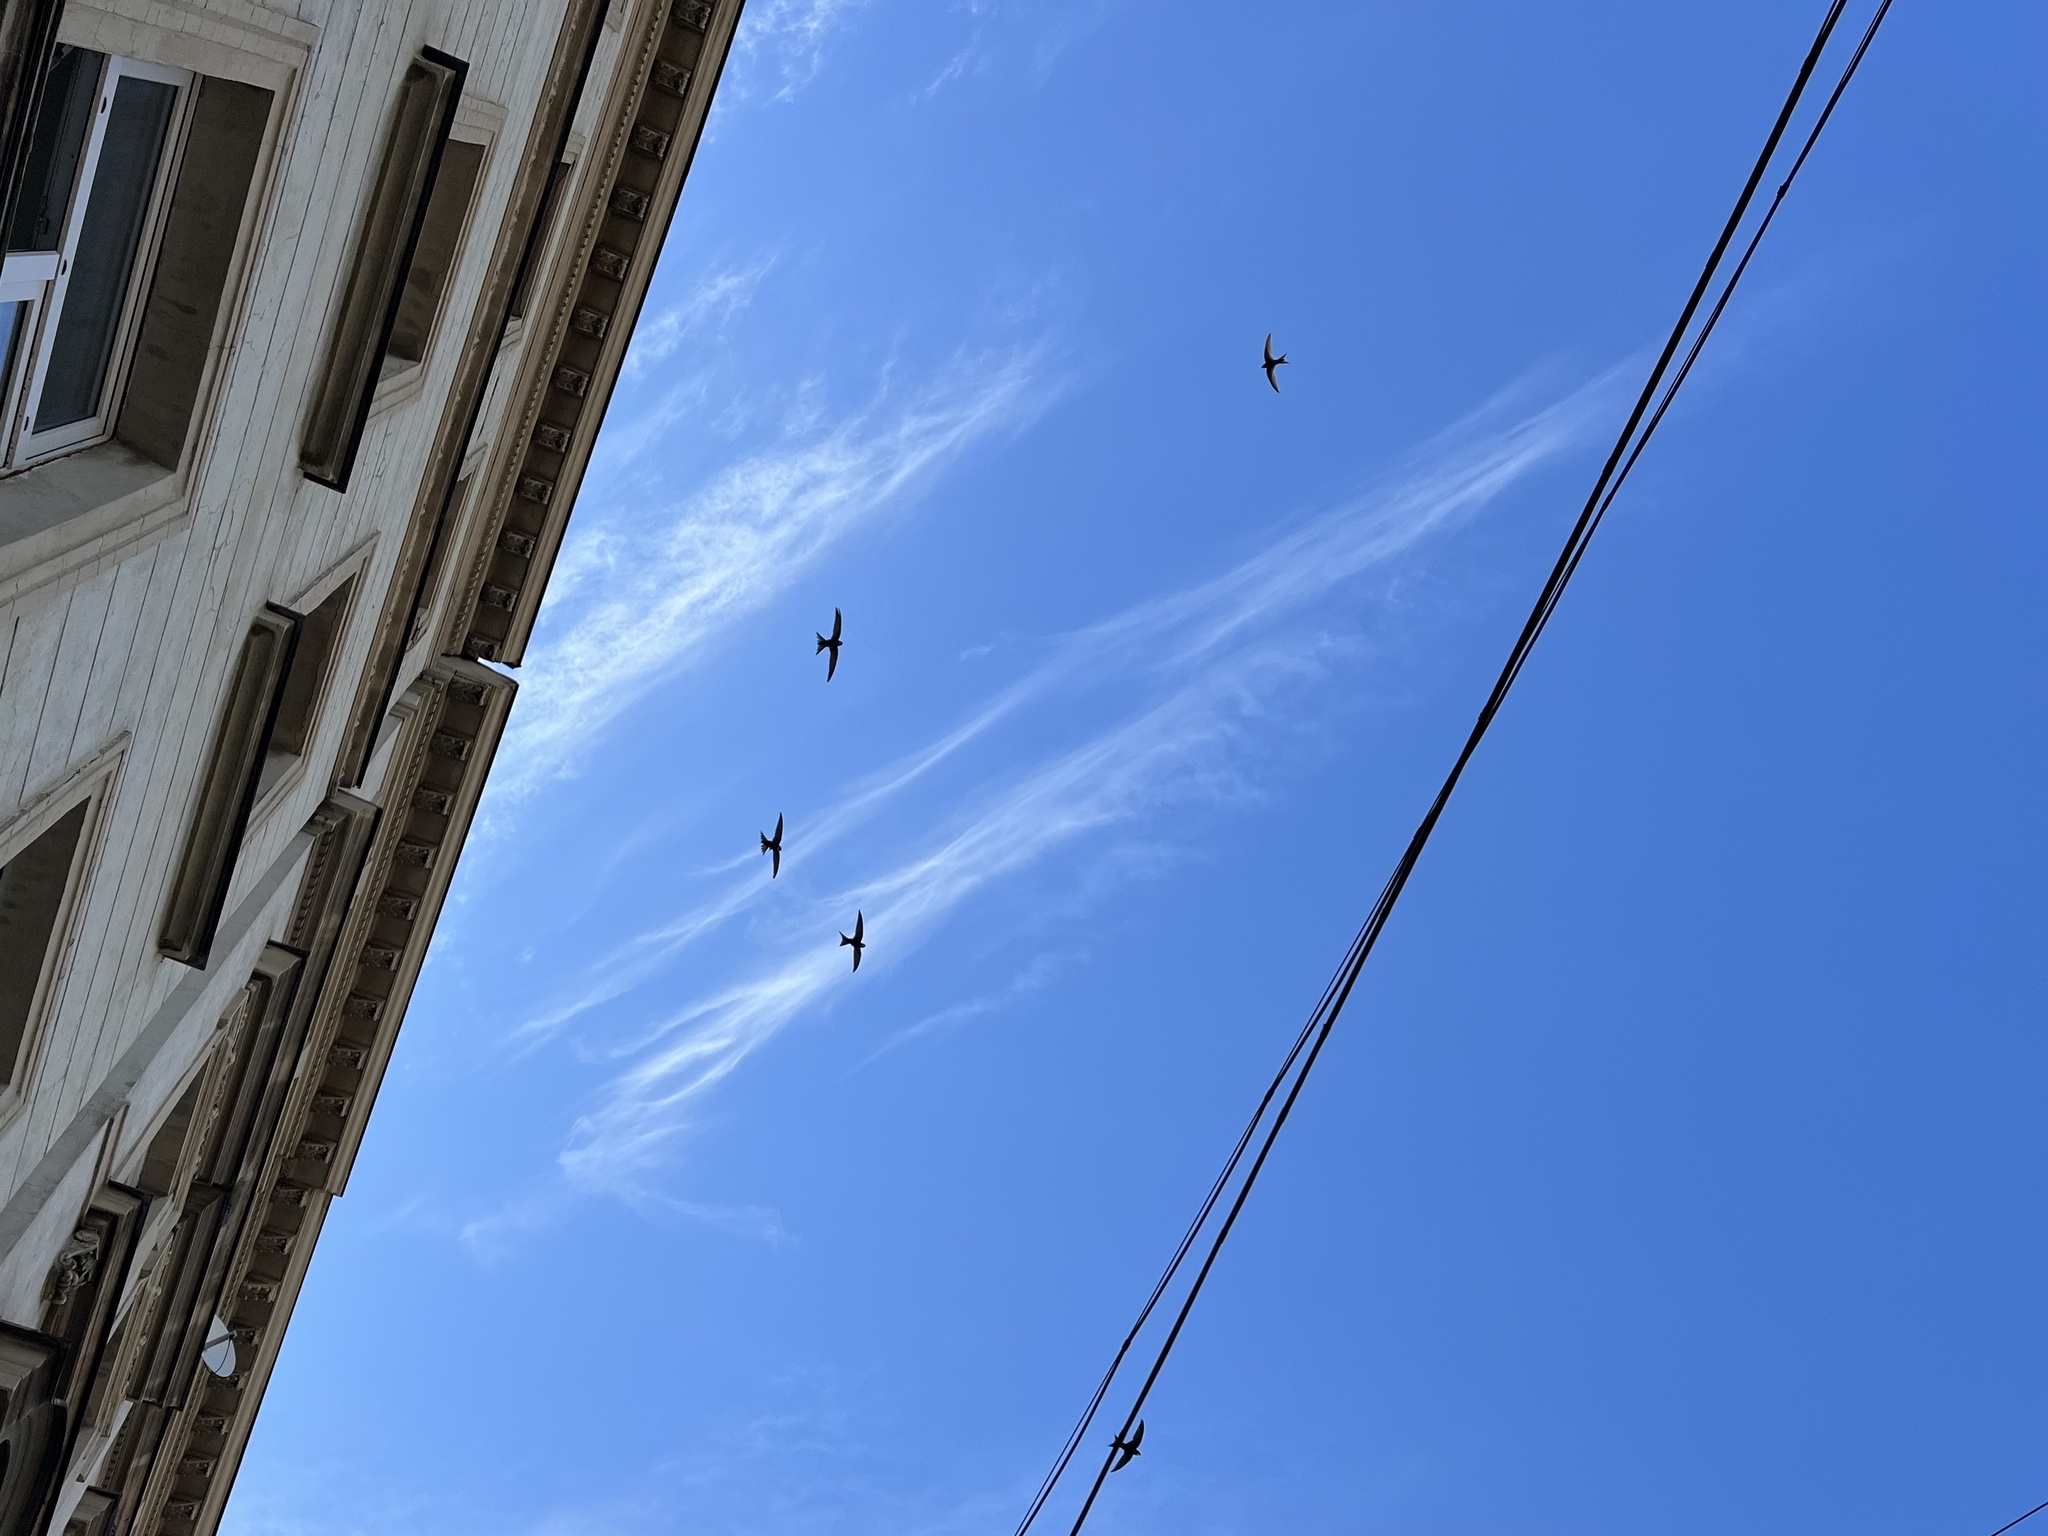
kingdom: Animalia
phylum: Chordata
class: Aves
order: Apodiformes
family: Apodidae
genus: Apus
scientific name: Apus apus
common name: Common swift
